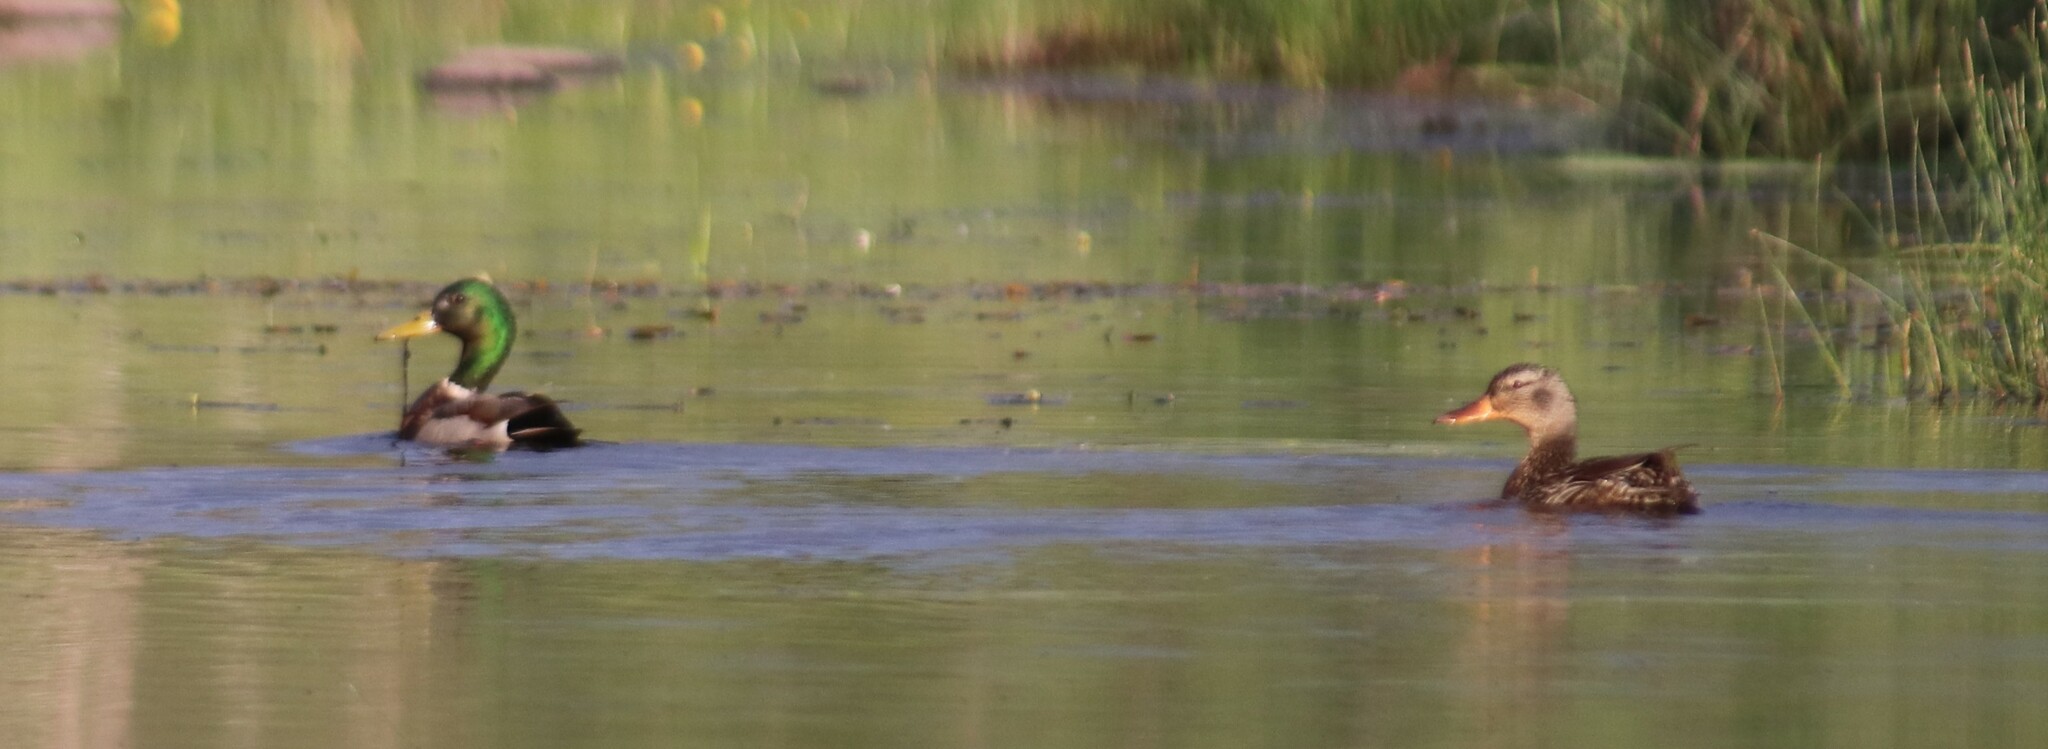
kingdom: Animalia
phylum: Chordata
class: Aves
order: Anseriformes
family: Anatidae
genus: Anas
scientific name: Anas platyrhynchos
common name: Mallard
